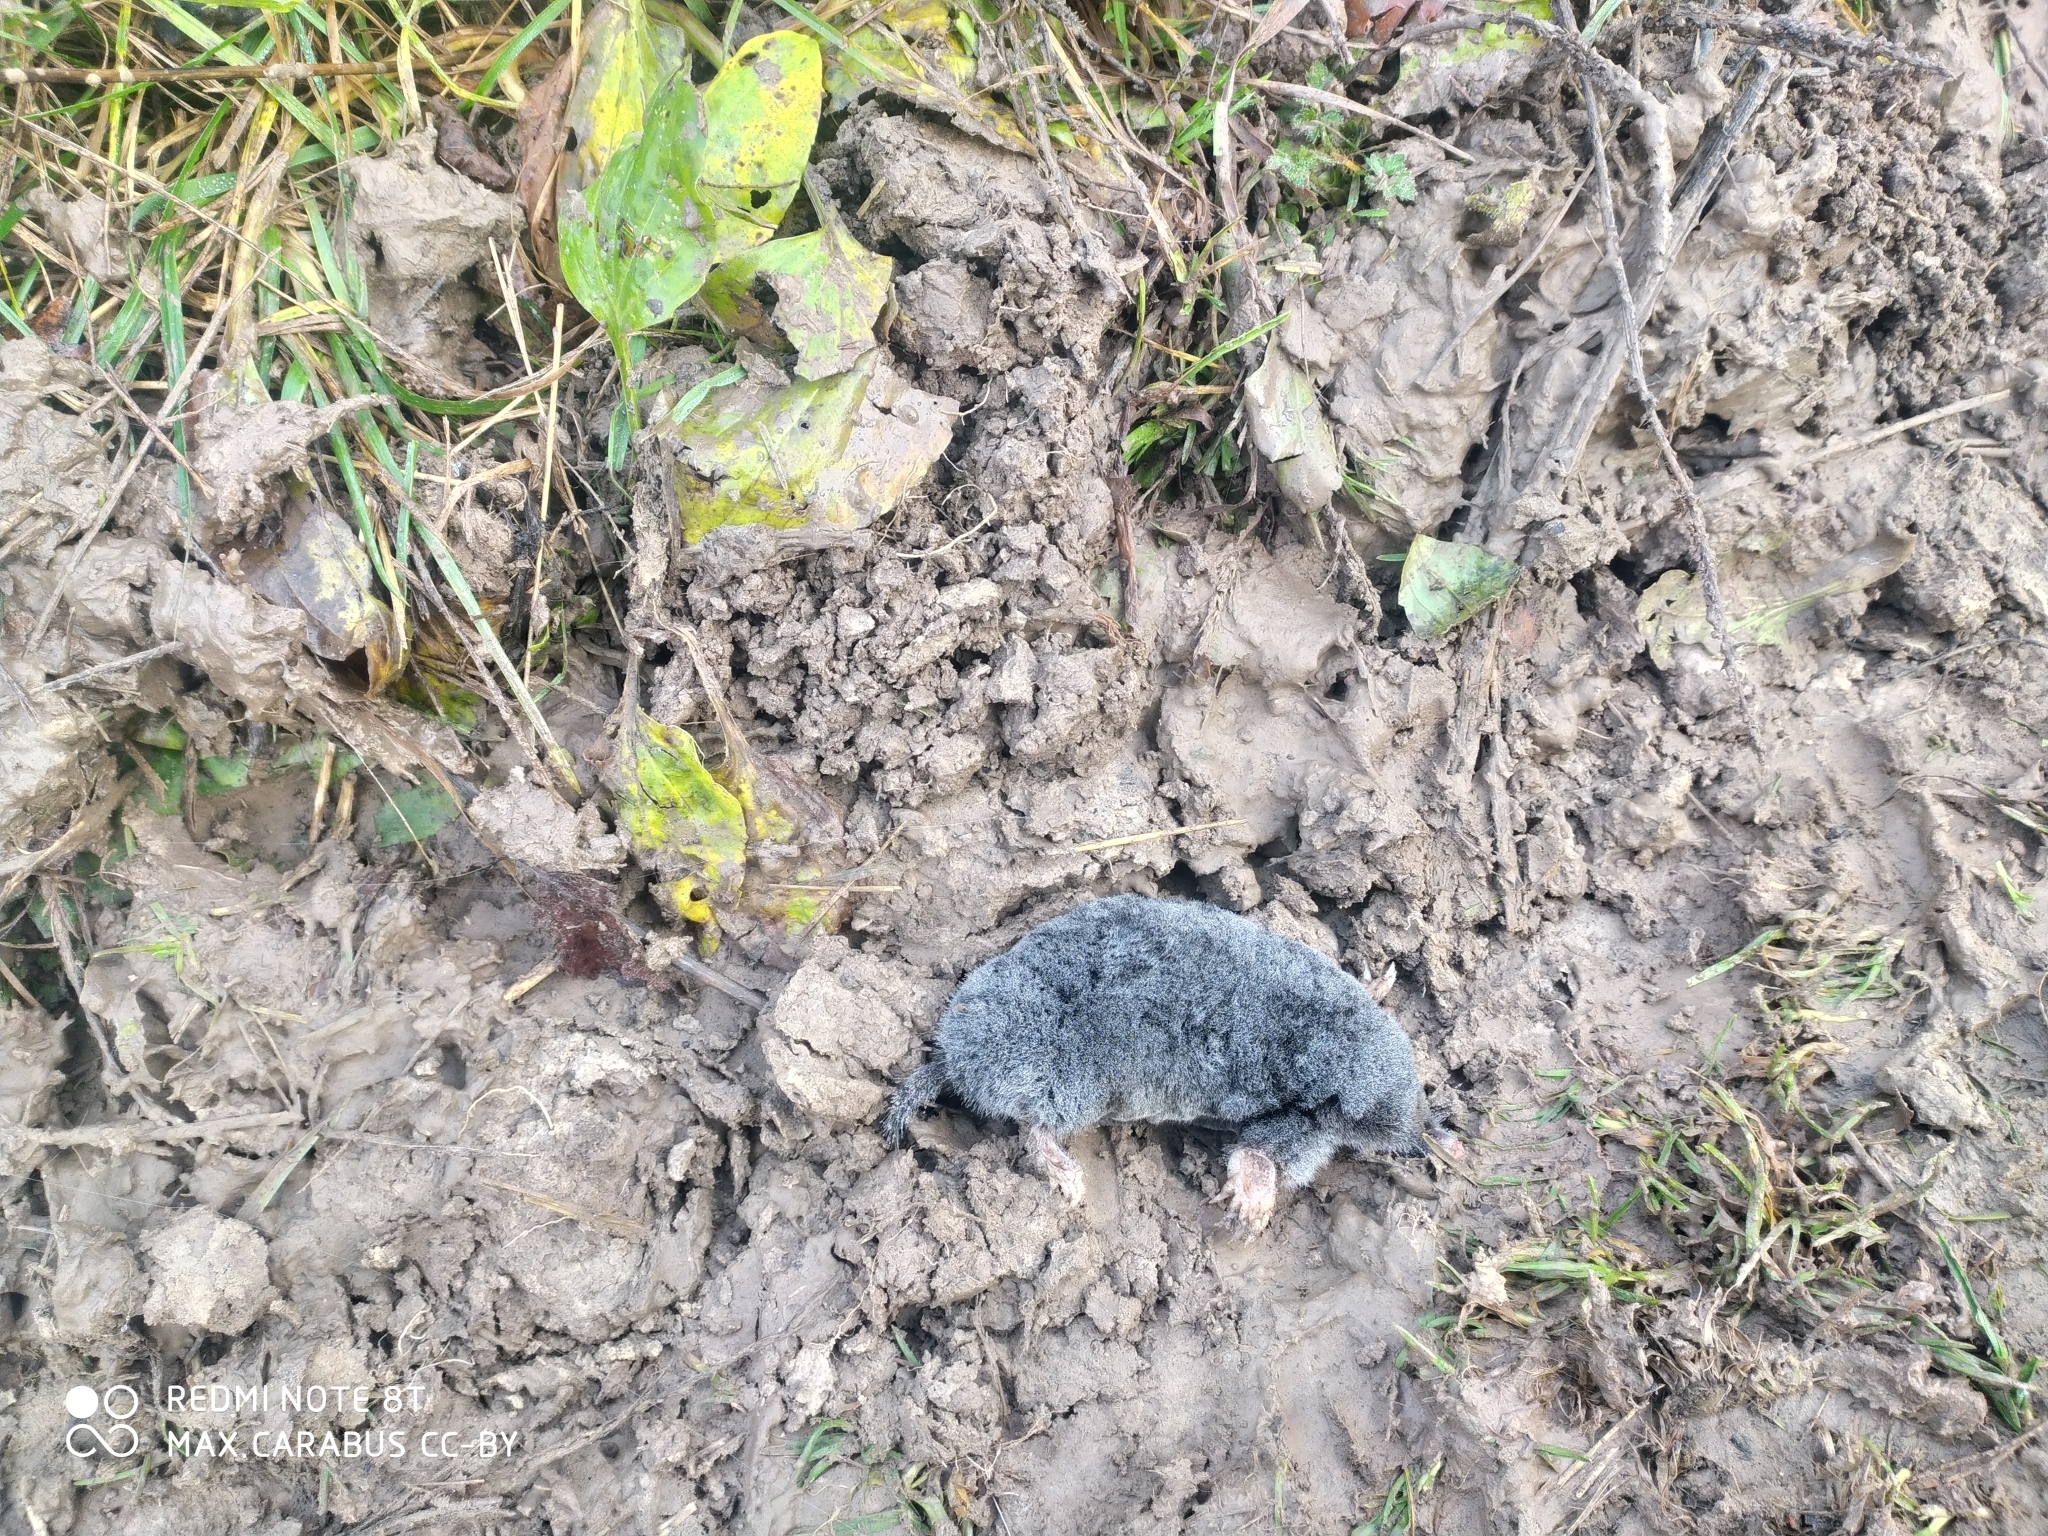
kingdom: Animalia
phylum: Chordata
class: Mammalia
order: Soricomorpha
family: Talpidae
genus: Talpa
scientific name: Talpa europaea
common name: European mole
